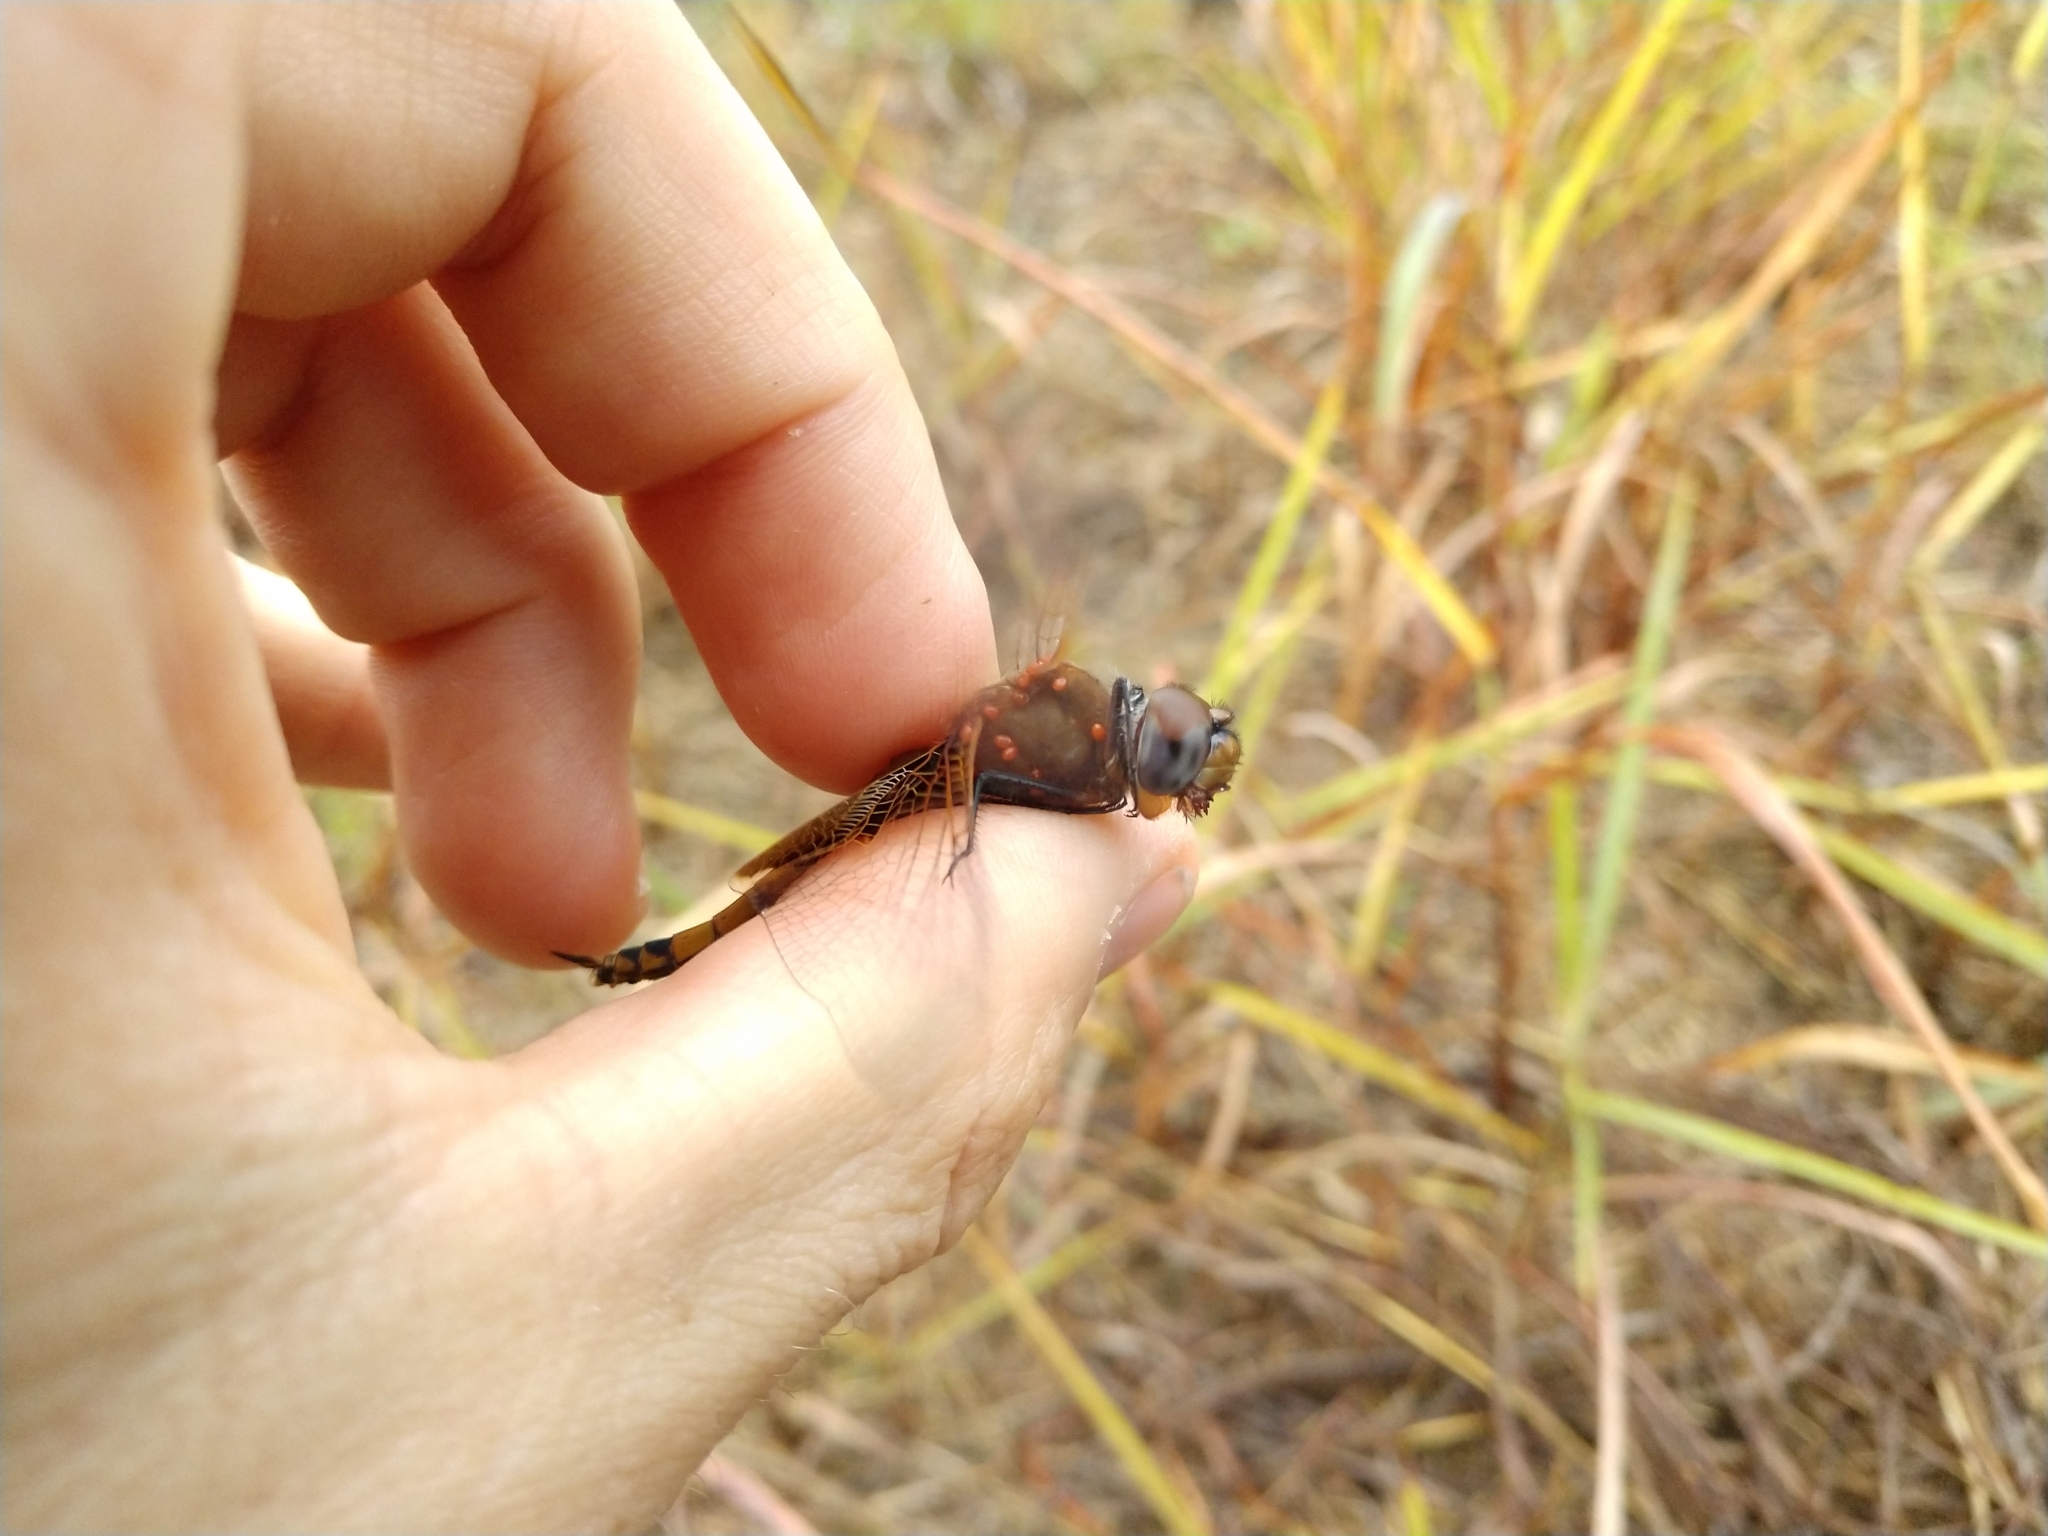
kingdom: Animalia
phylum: Arthropoda
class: Insecta
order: Odonata
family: Libellulidae
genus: Tramea
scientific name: Tramea onusta
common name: Red saddlebags
